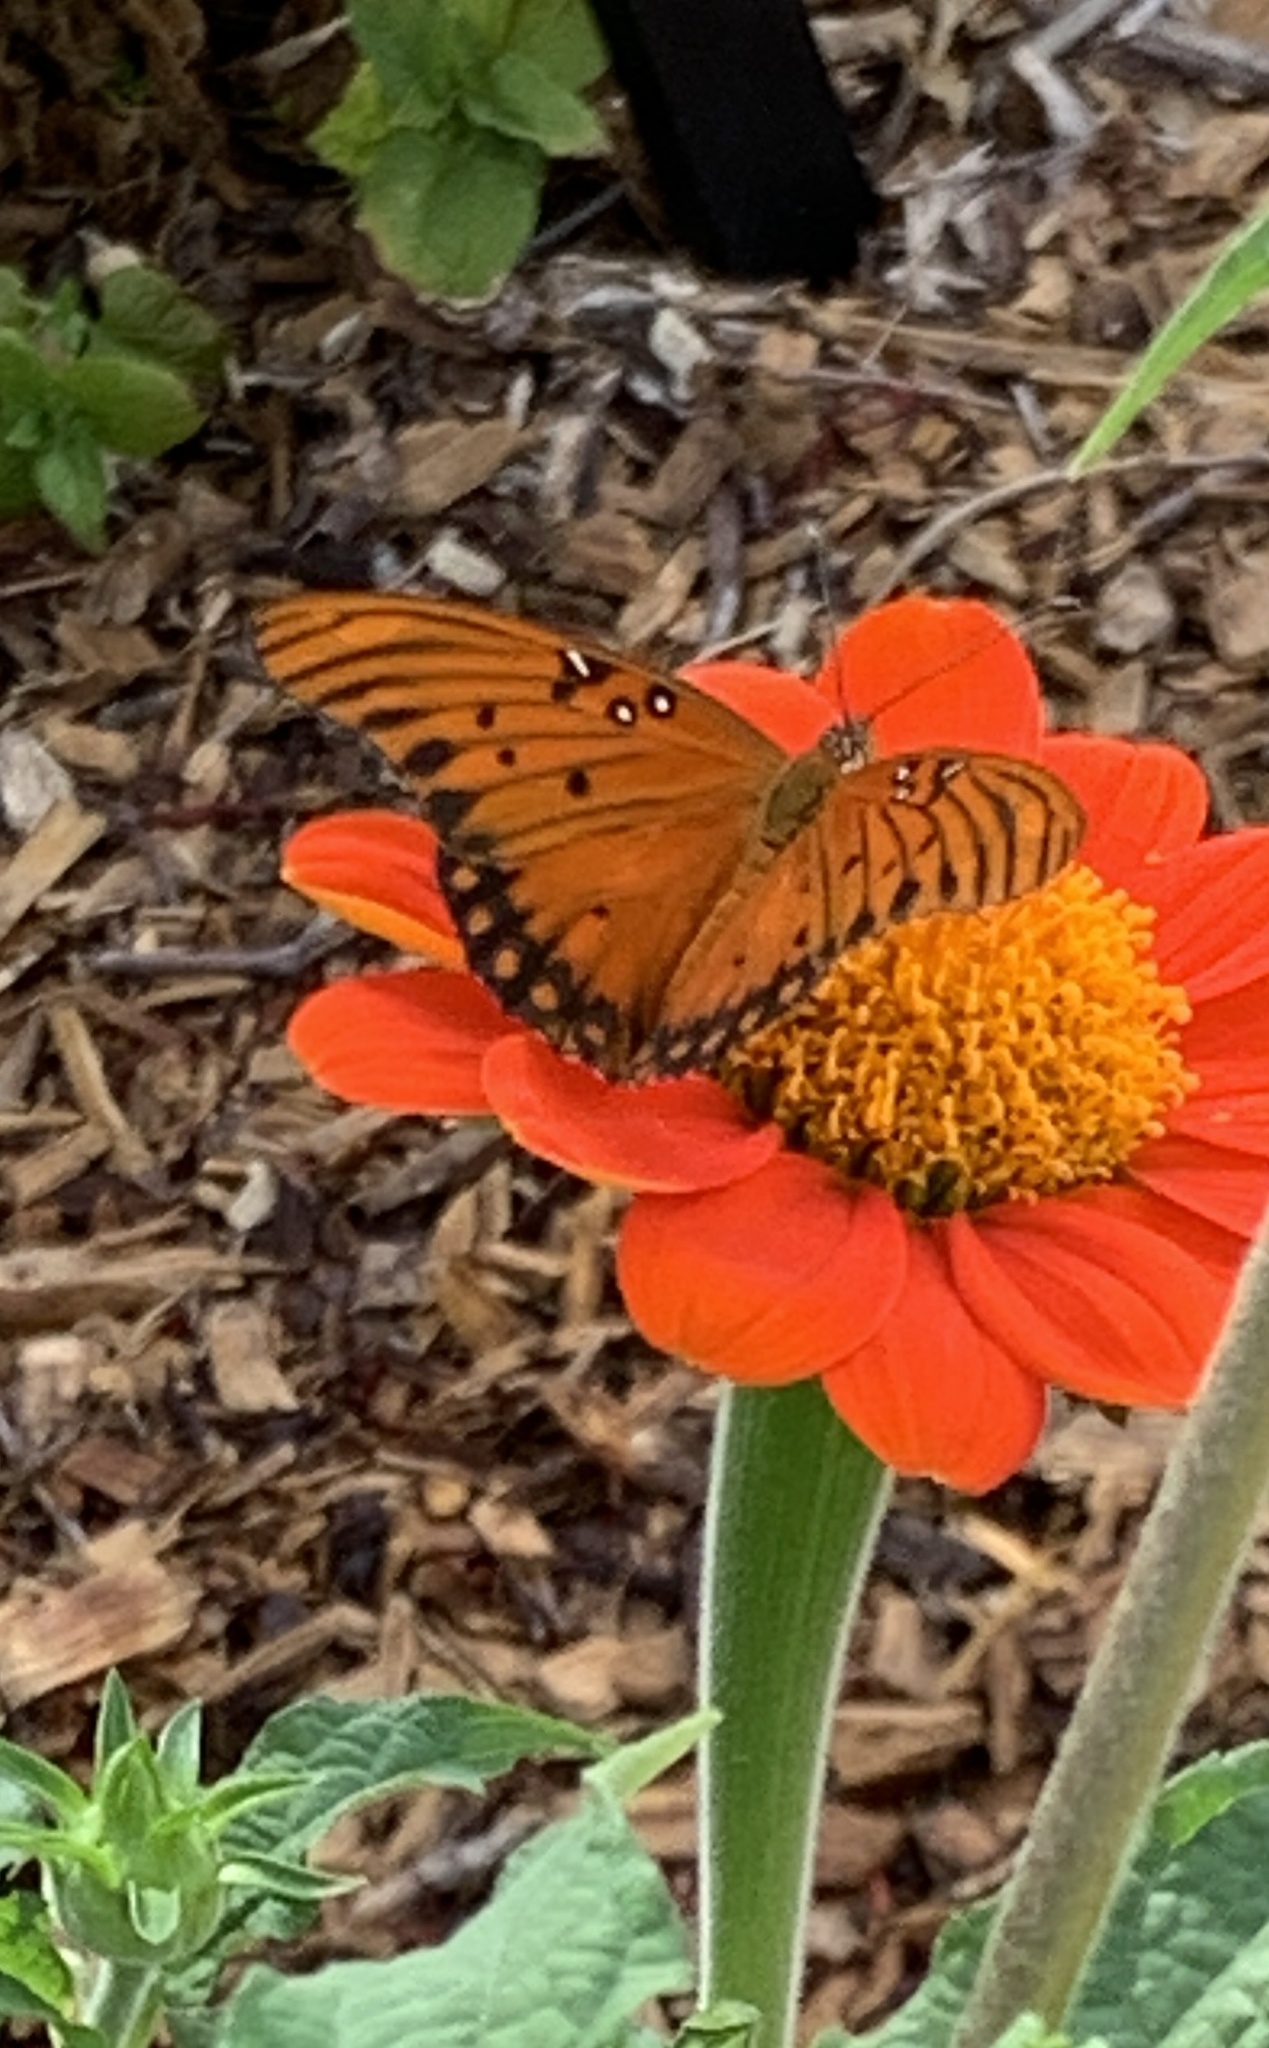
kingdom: Animalia
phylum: Arthropoda
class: Insecta
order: Lepidoptera
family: Nymphalidae
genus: Dione
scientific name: Dione vanillae
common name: Gulf fritillary
